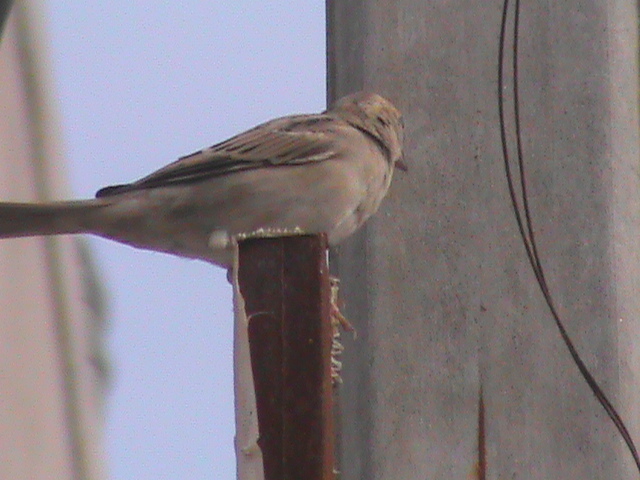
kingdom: Animalia
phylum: Chordata
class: Aves
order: Passeriformes
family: Passeridae
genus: Passer
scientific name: Passer domesticus
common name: House sparrow
